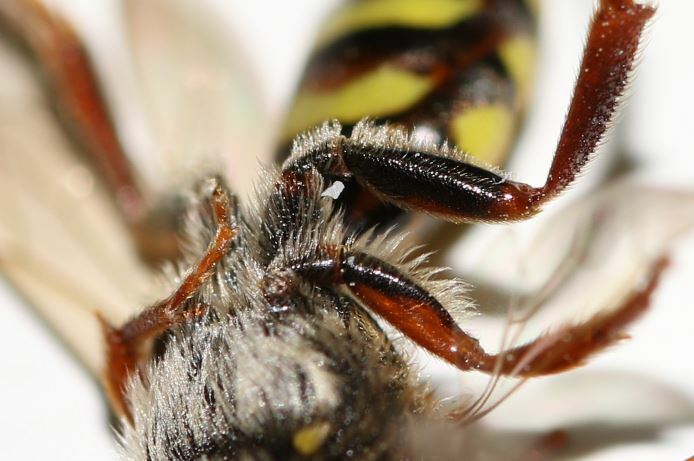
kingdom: Animalia
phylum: Arthropoda
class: Insecta
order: Hymenoptera
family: Apidae
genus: Nomada
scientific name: Nomada signata
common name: Broad-banded nomad bee
